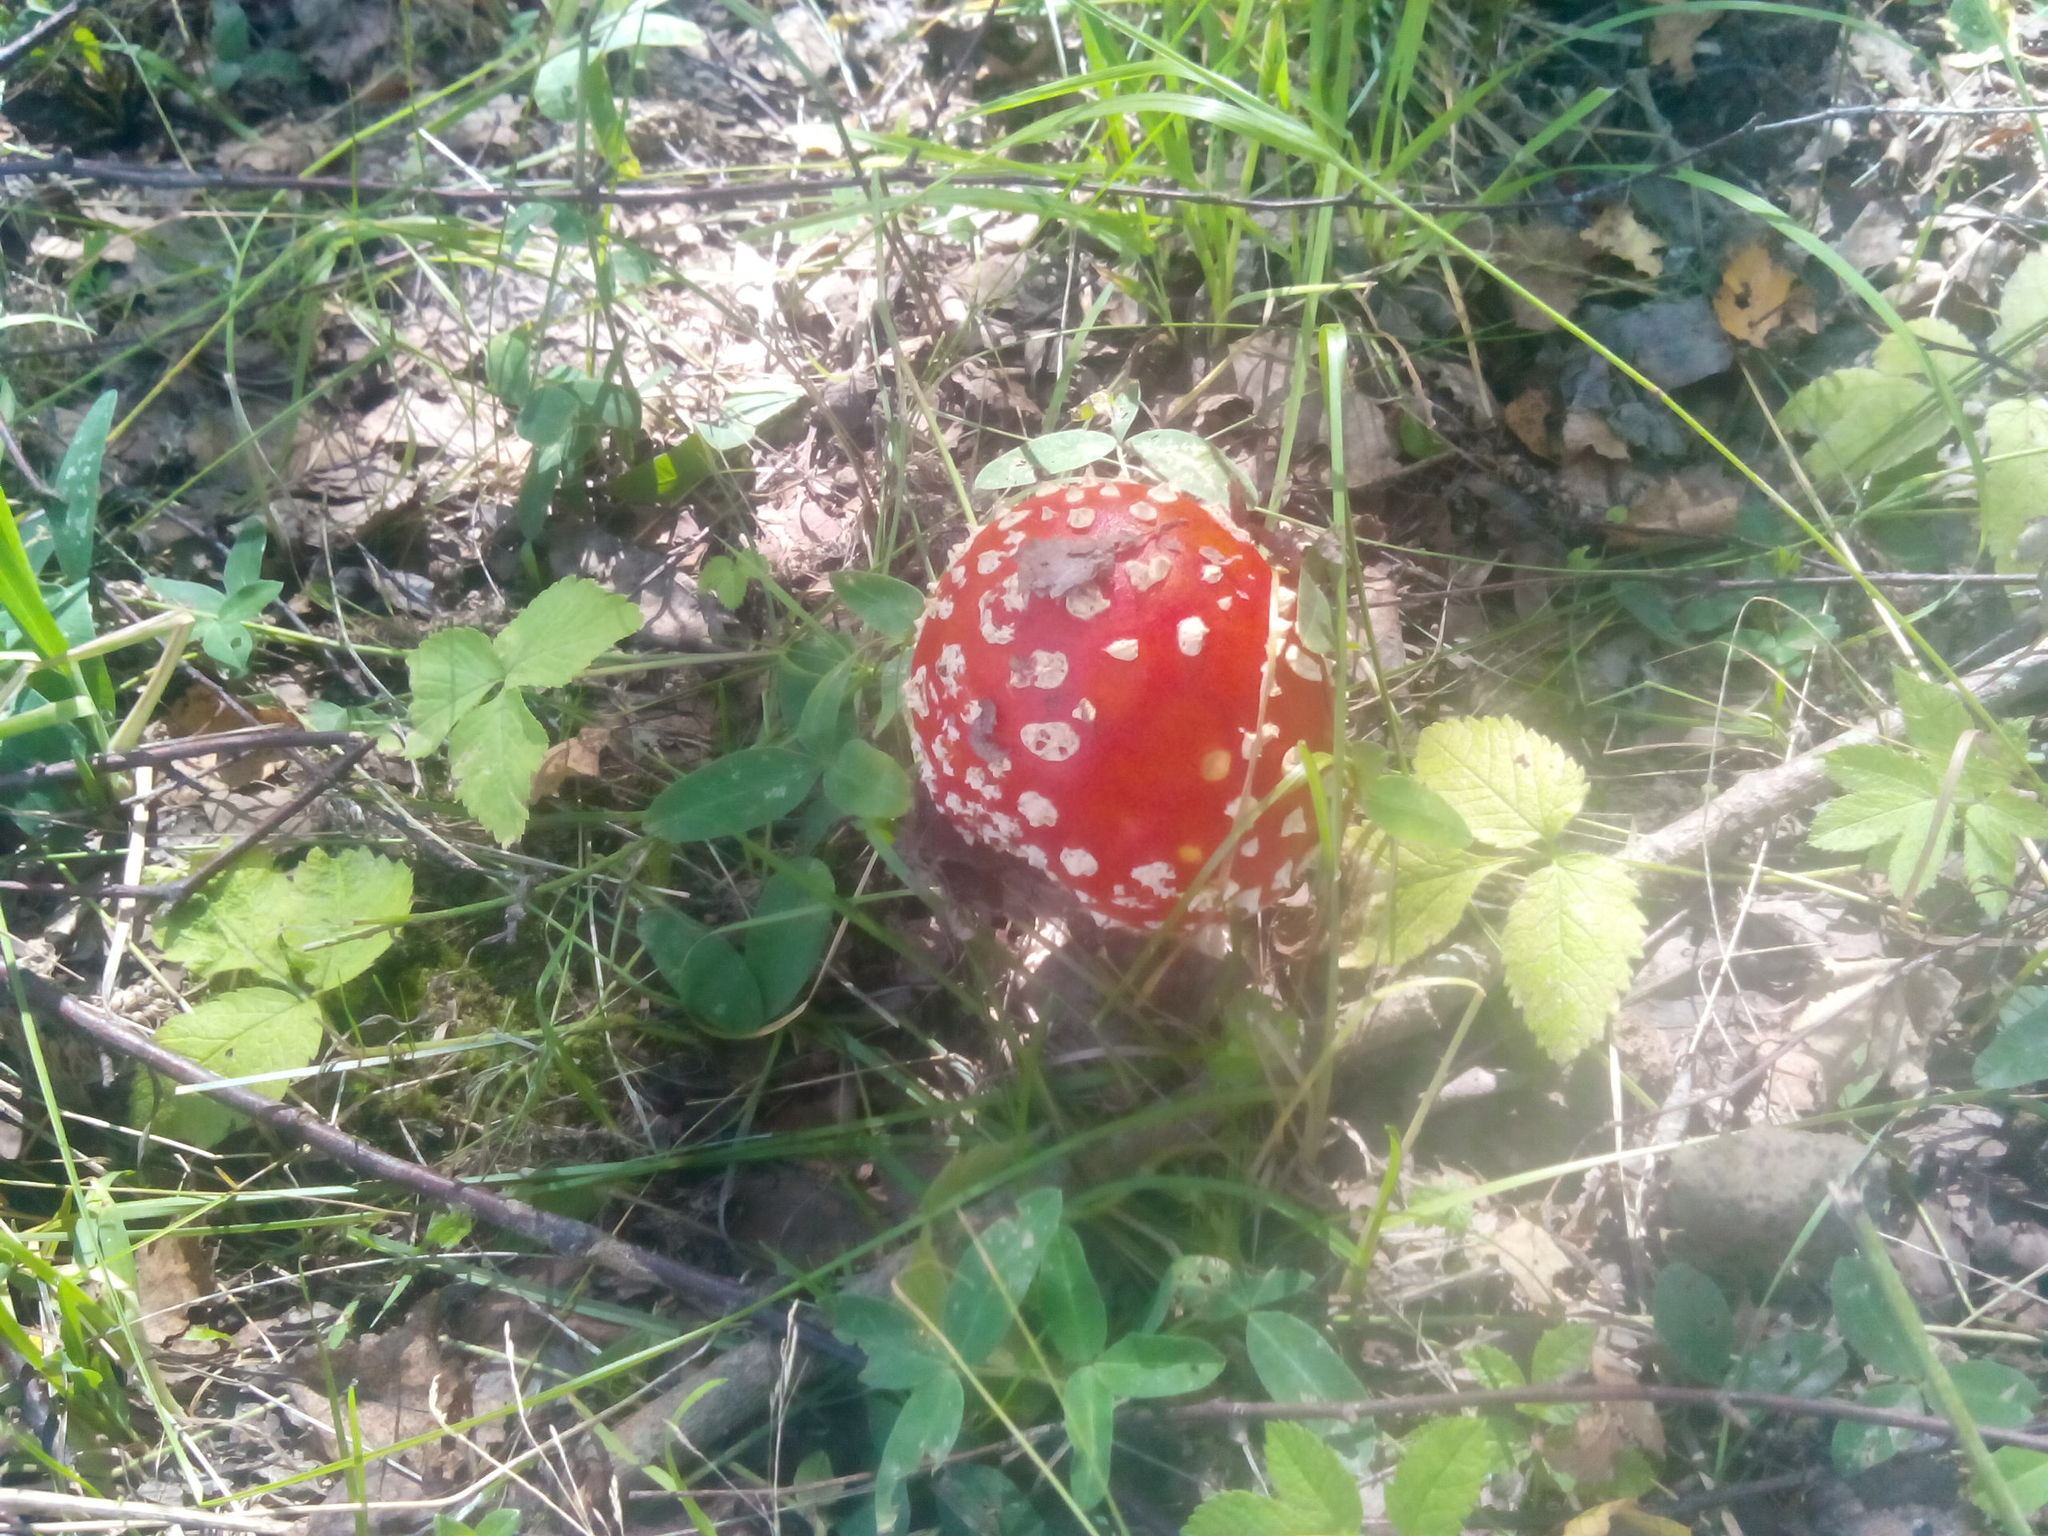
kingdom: Fungi
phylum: Basidiomycota
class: Agaricomycetes
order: Agaricales
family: Amanitaceae
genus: Amanita
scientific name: Amanita muscaria
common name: Fly agaric
